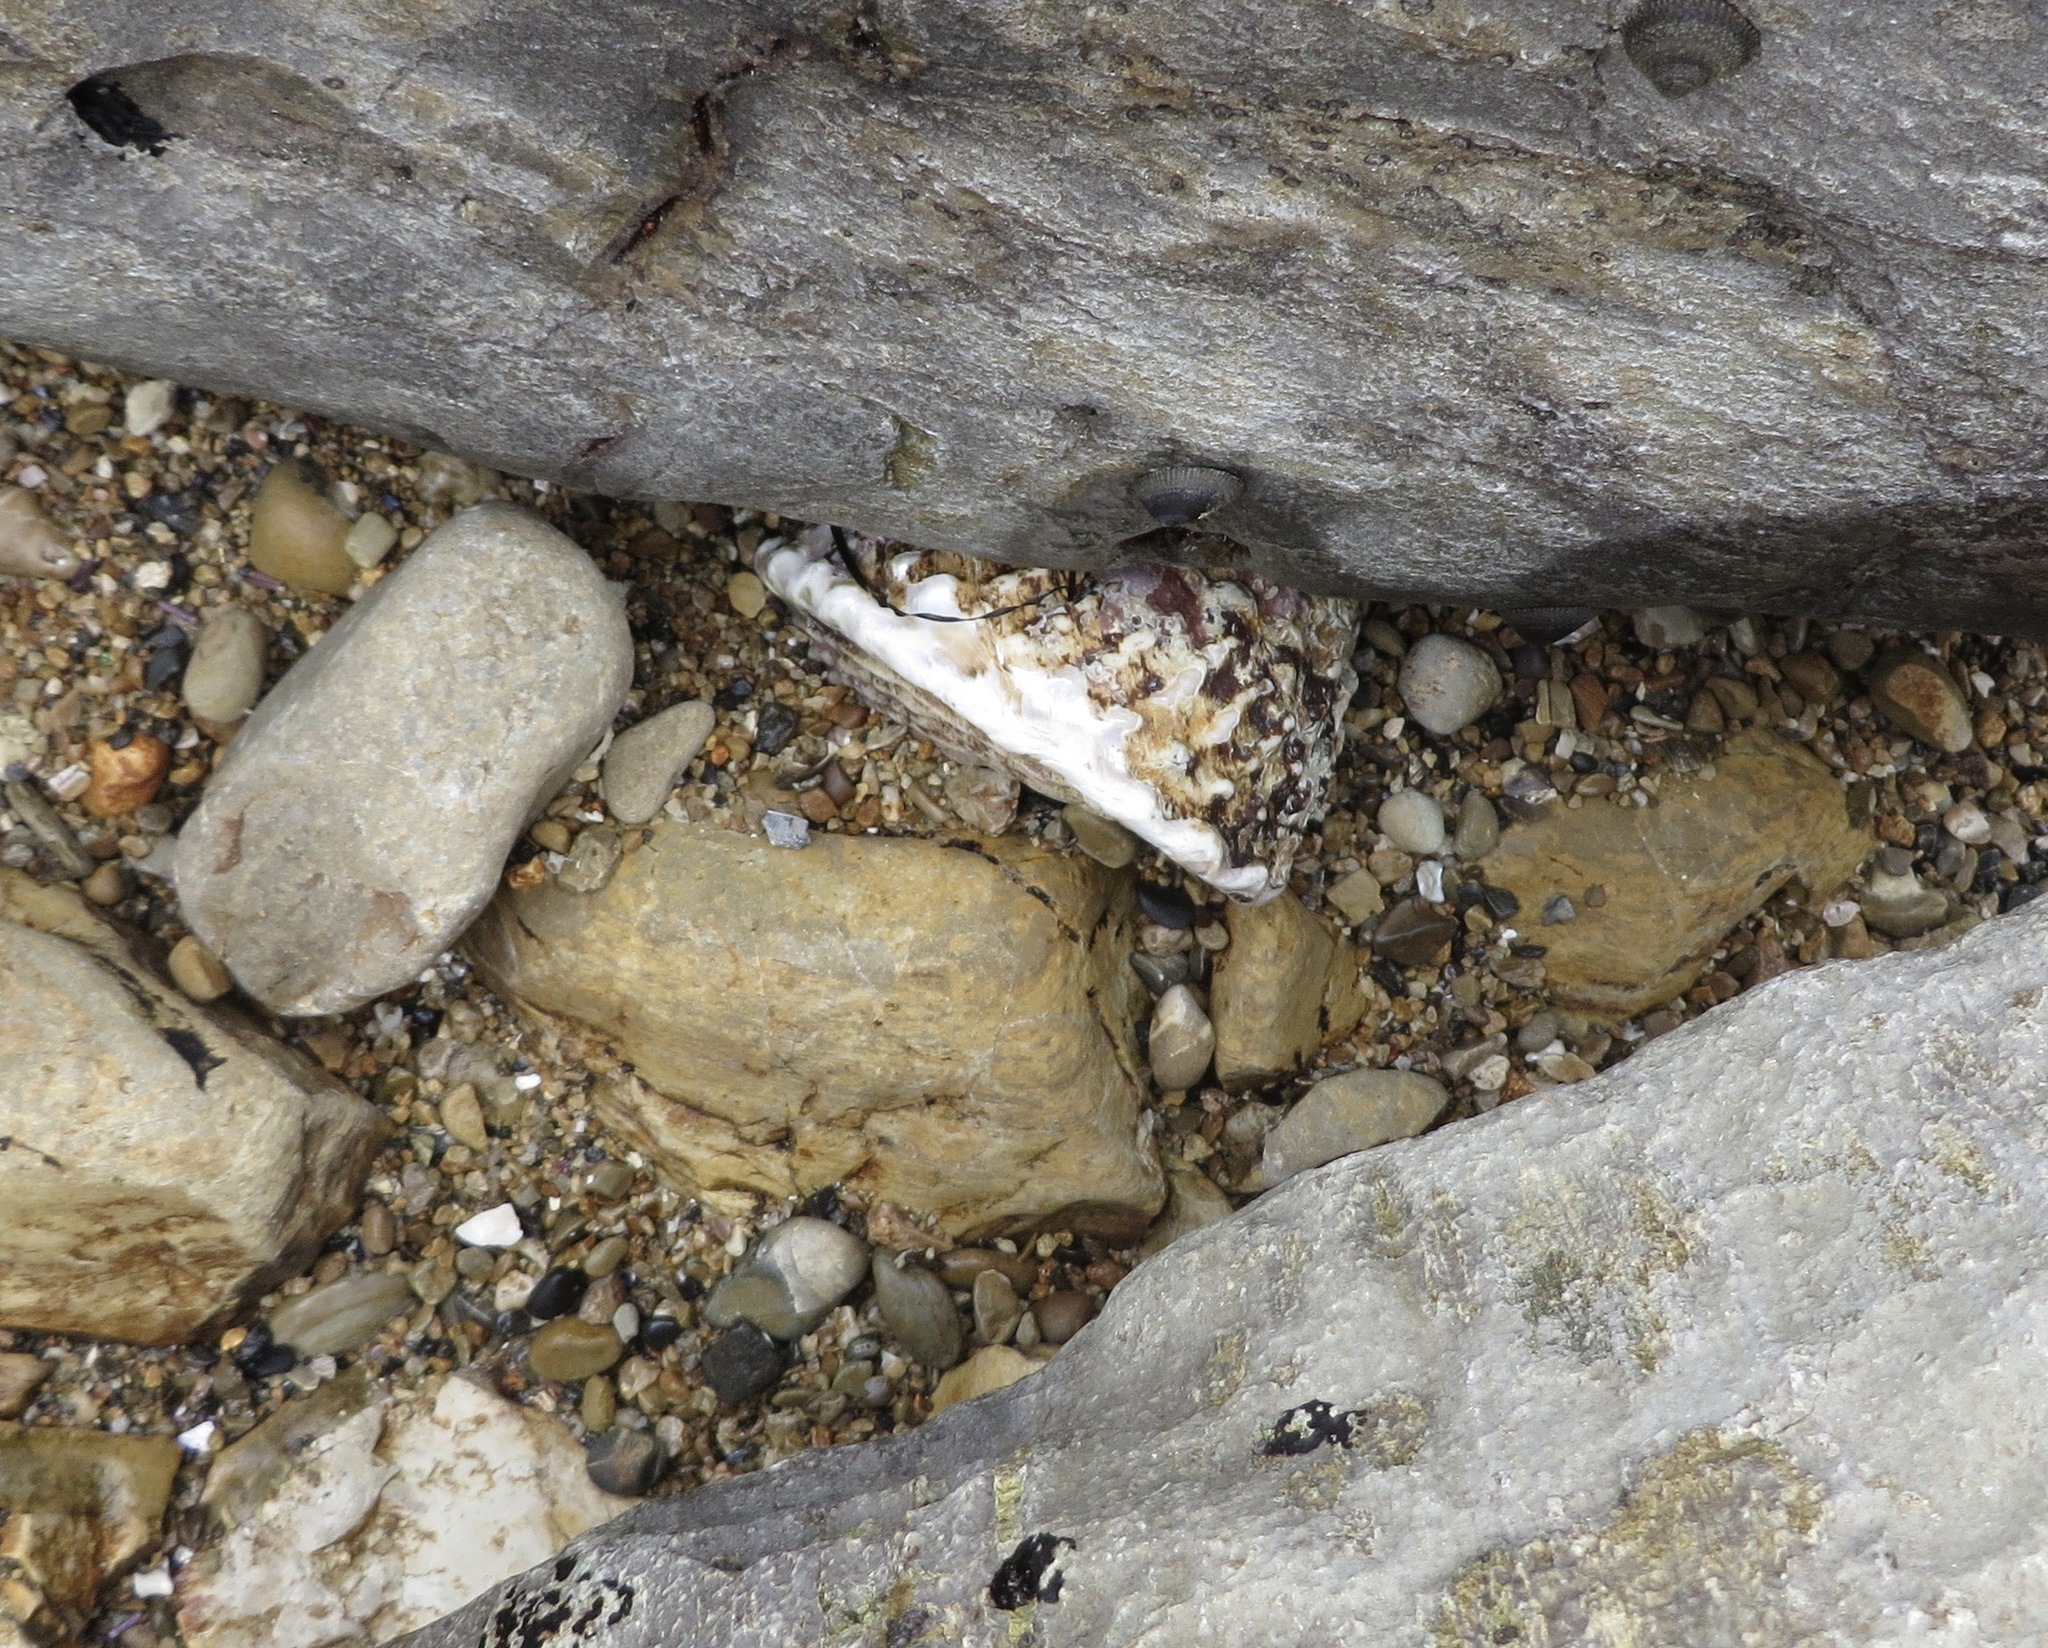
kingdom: Animalia
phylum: Mollusca
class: Gastropoda
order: Trochida
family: Turbinidae
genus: Megastraea
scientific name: Megastraea undosa
